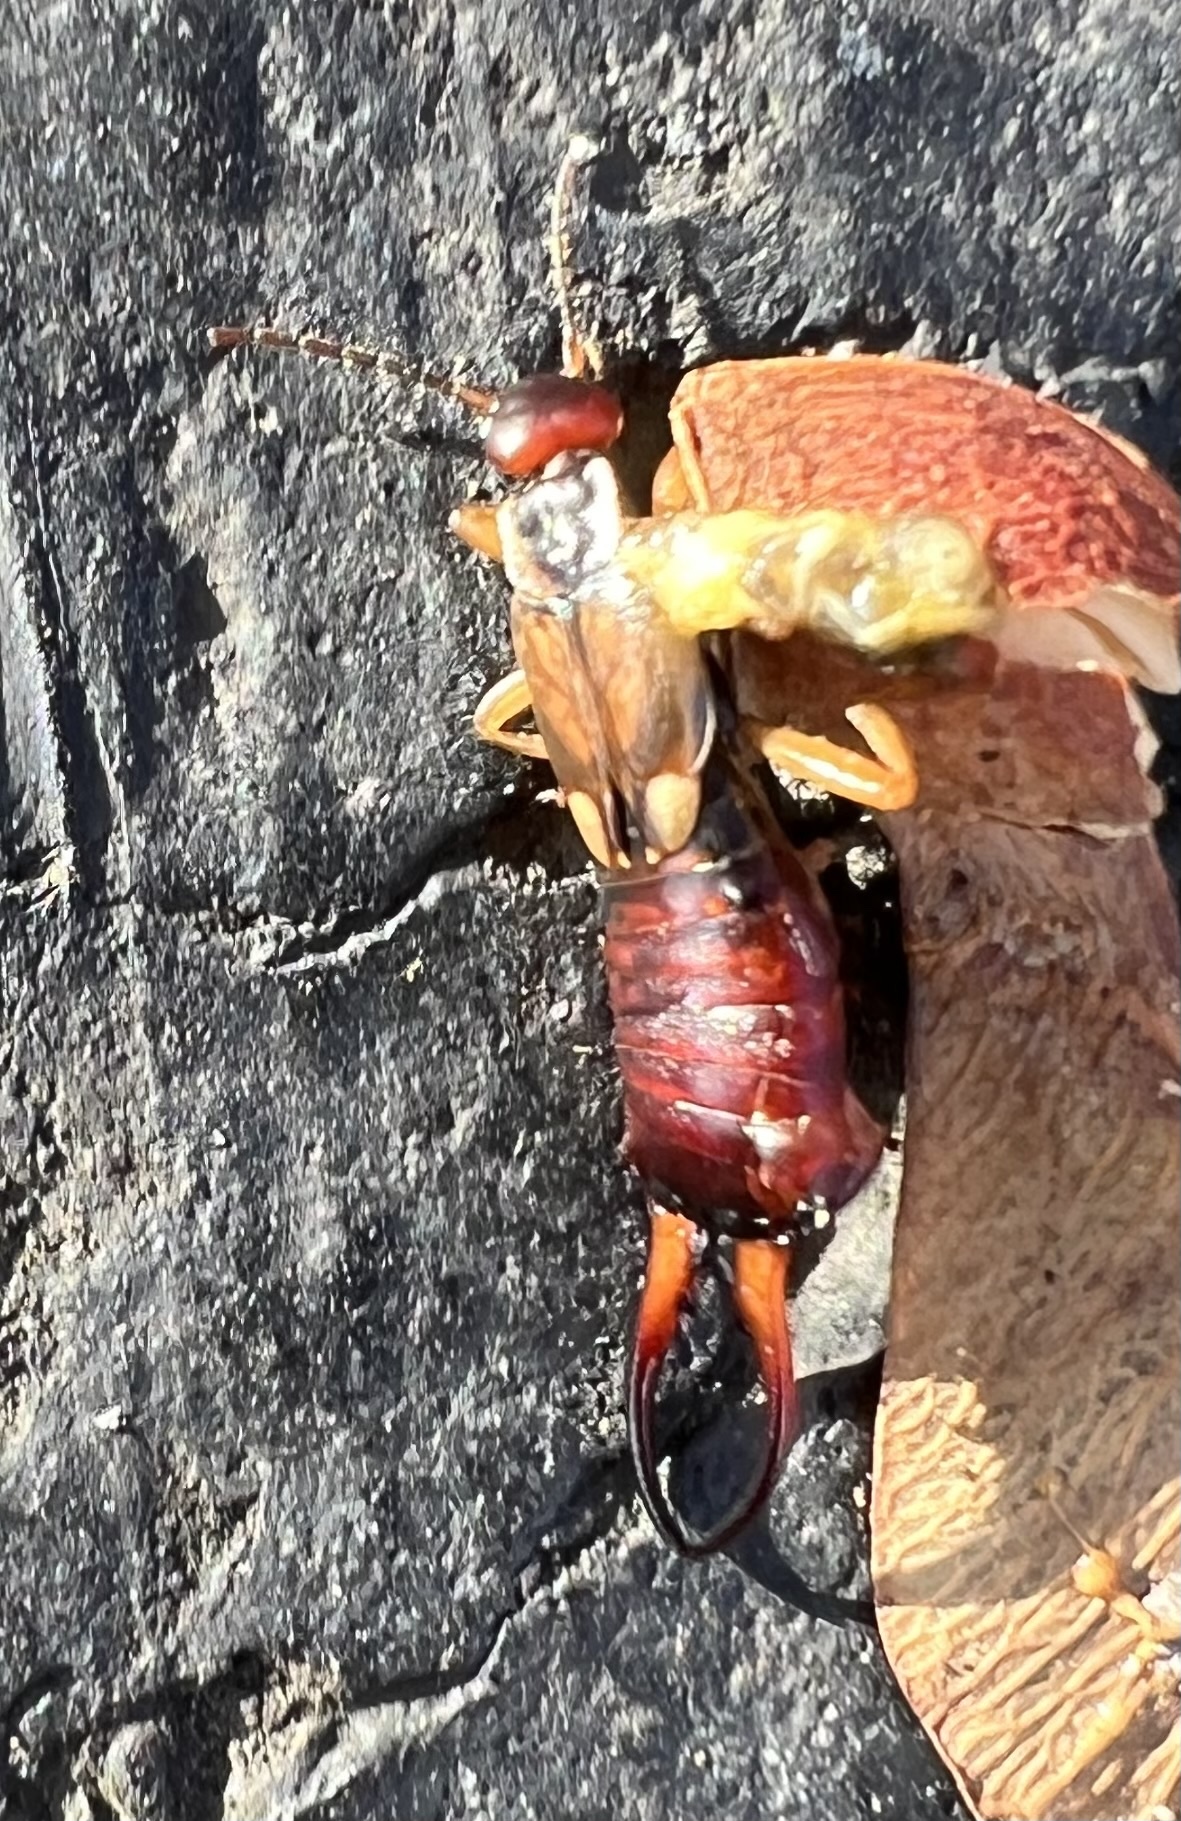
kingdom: Animalia
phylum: Arthropoda
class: Insecta
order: Dermaptera
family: Forficulidae
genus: Forficula
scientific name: Forficula auricularia
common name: European earwig
